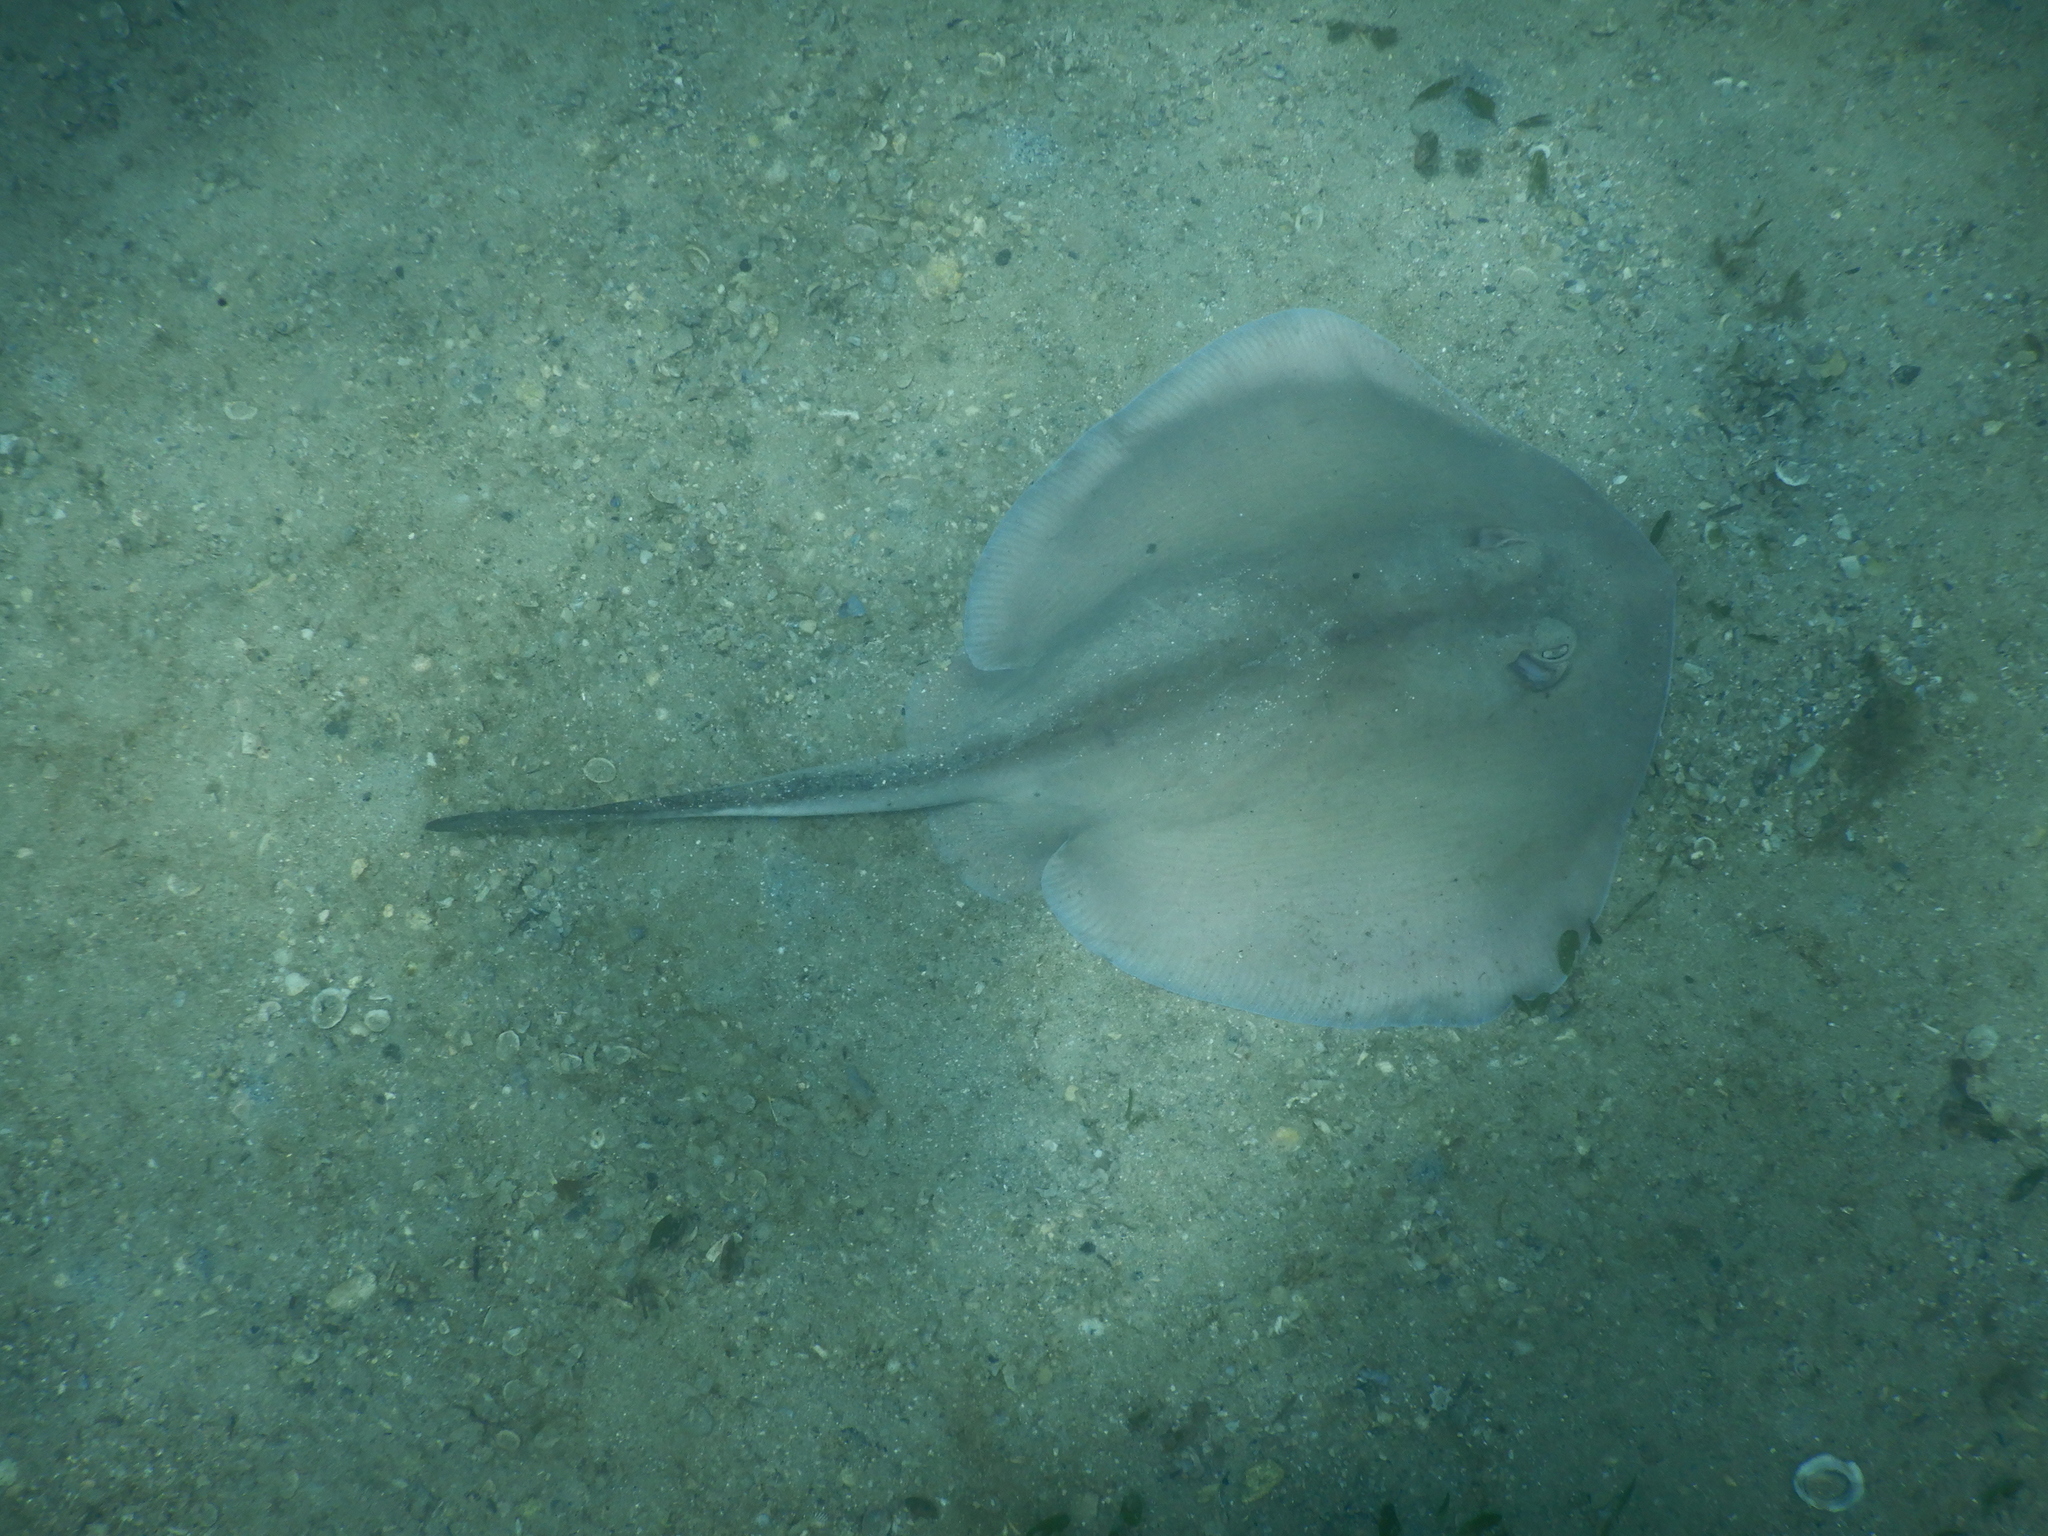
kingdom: Animalia
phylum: Chordata
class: Elasmobranchii
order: Myliobatiformes
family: Urolophidae
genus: Trygonoptera
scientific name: Trygonoptera testacea
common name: Common stingaree
